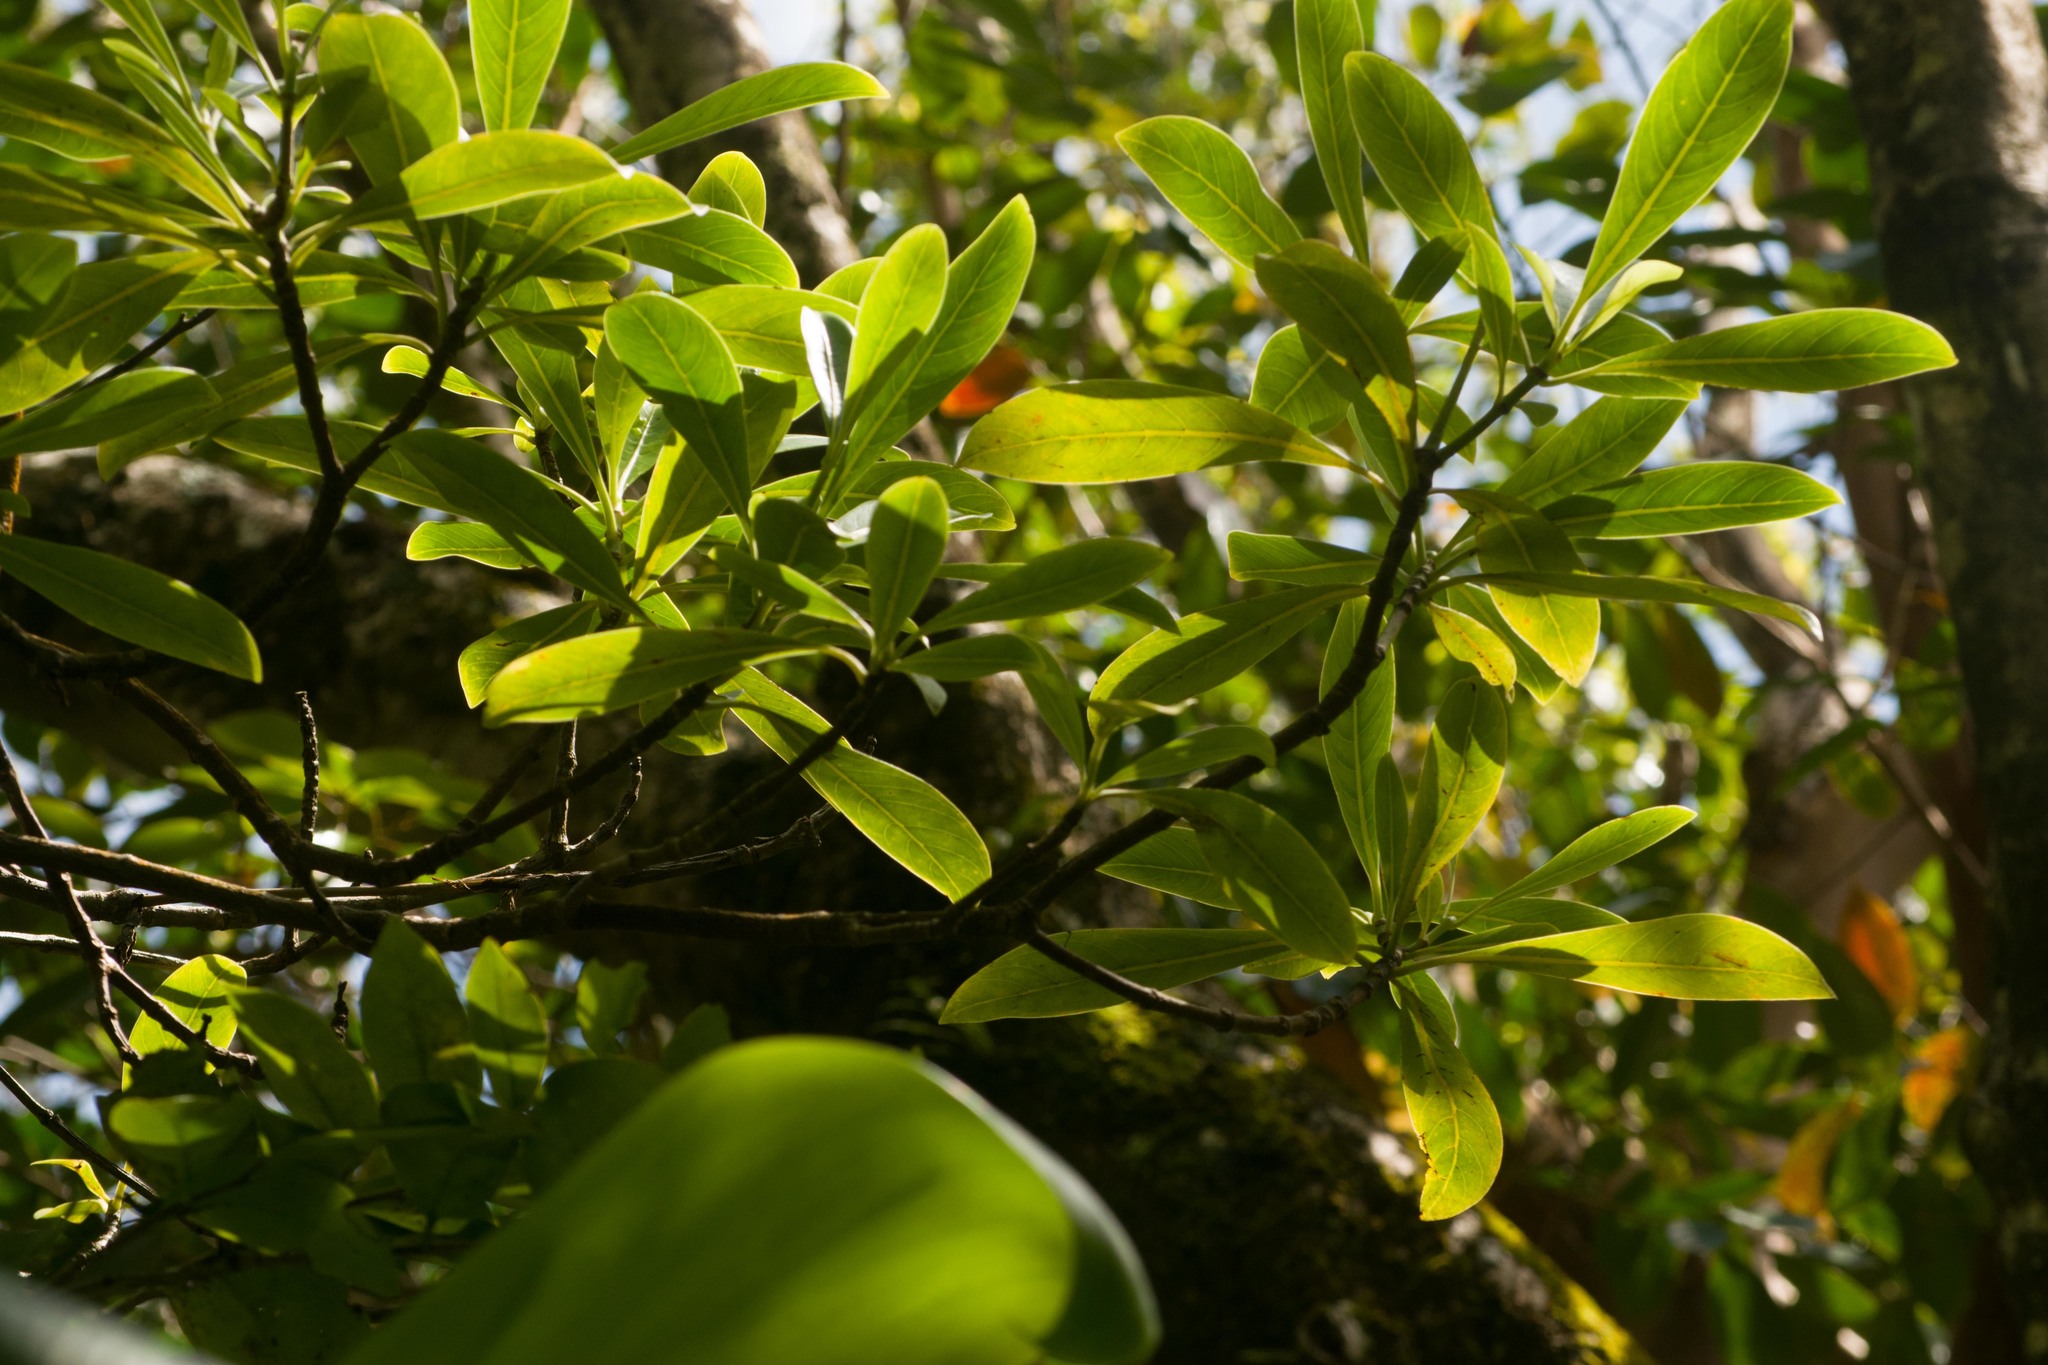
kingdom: Plantae
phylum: Tracheophyta
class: Magnoliopsida
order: Gentianales
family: Rubiaceae
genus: Psychotria
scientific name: Psychotria mariniana
